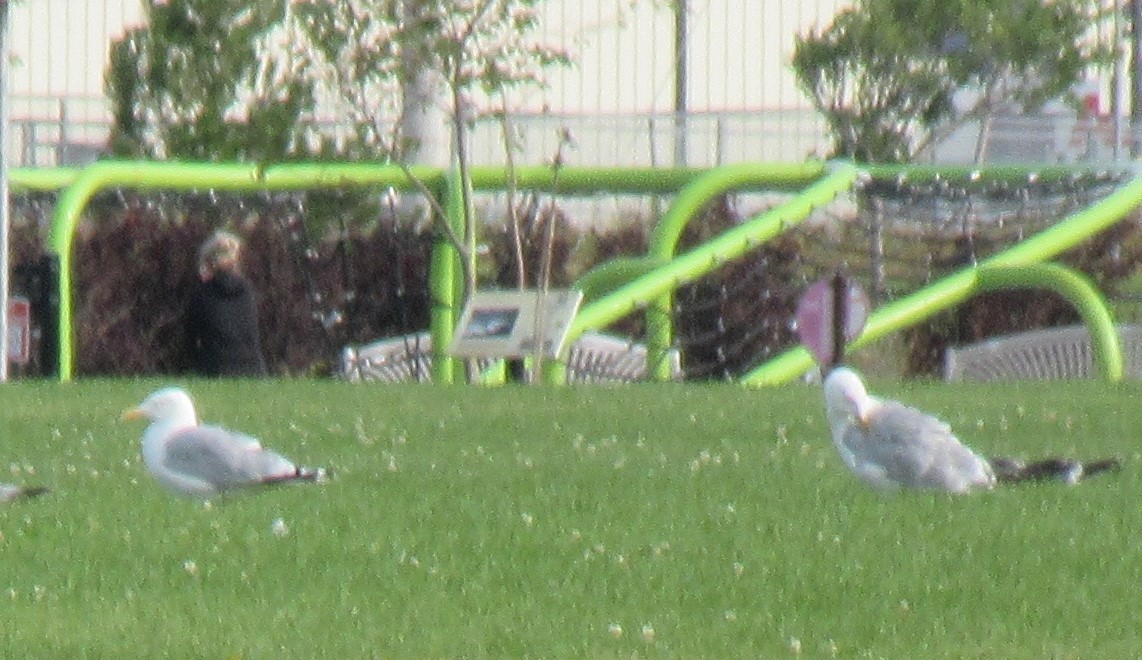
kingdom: Animalia
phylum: Chordata
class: Aves
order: Charadriiformes
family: Laridae
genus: Larus
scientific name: Larus argentatus
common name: Herring gull
